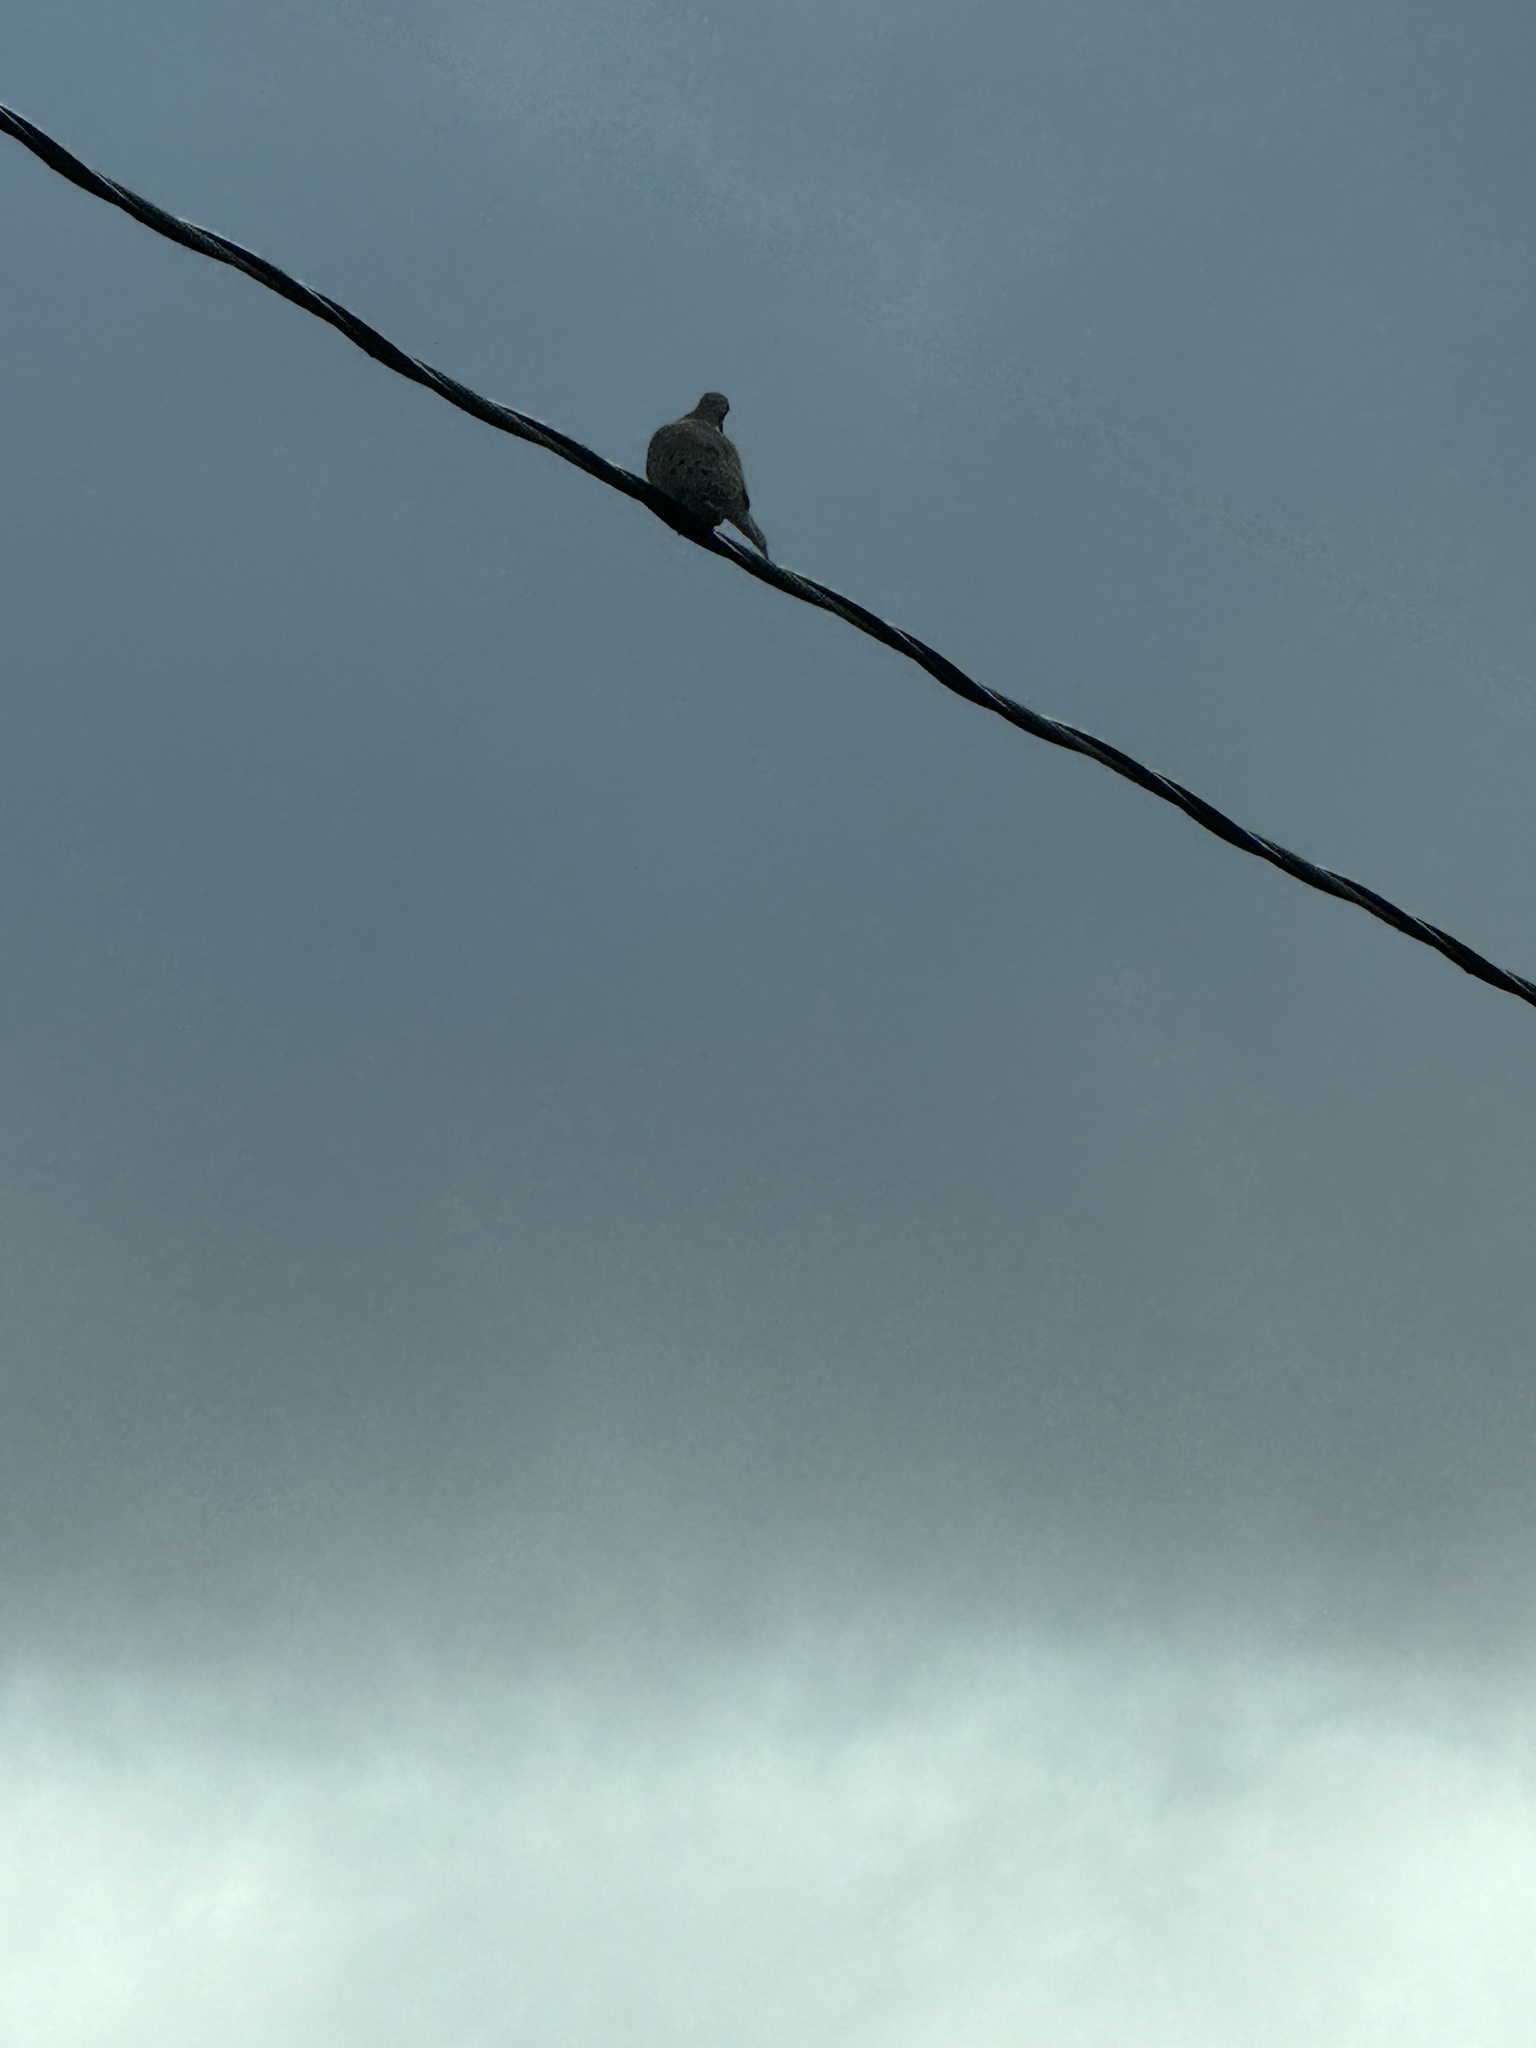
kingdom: Animalia
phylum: Chordata
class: Aves
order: Columbiformes
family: Columbidae
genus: Zenaida
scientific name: Zenaida macroura
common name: Mourning dove
